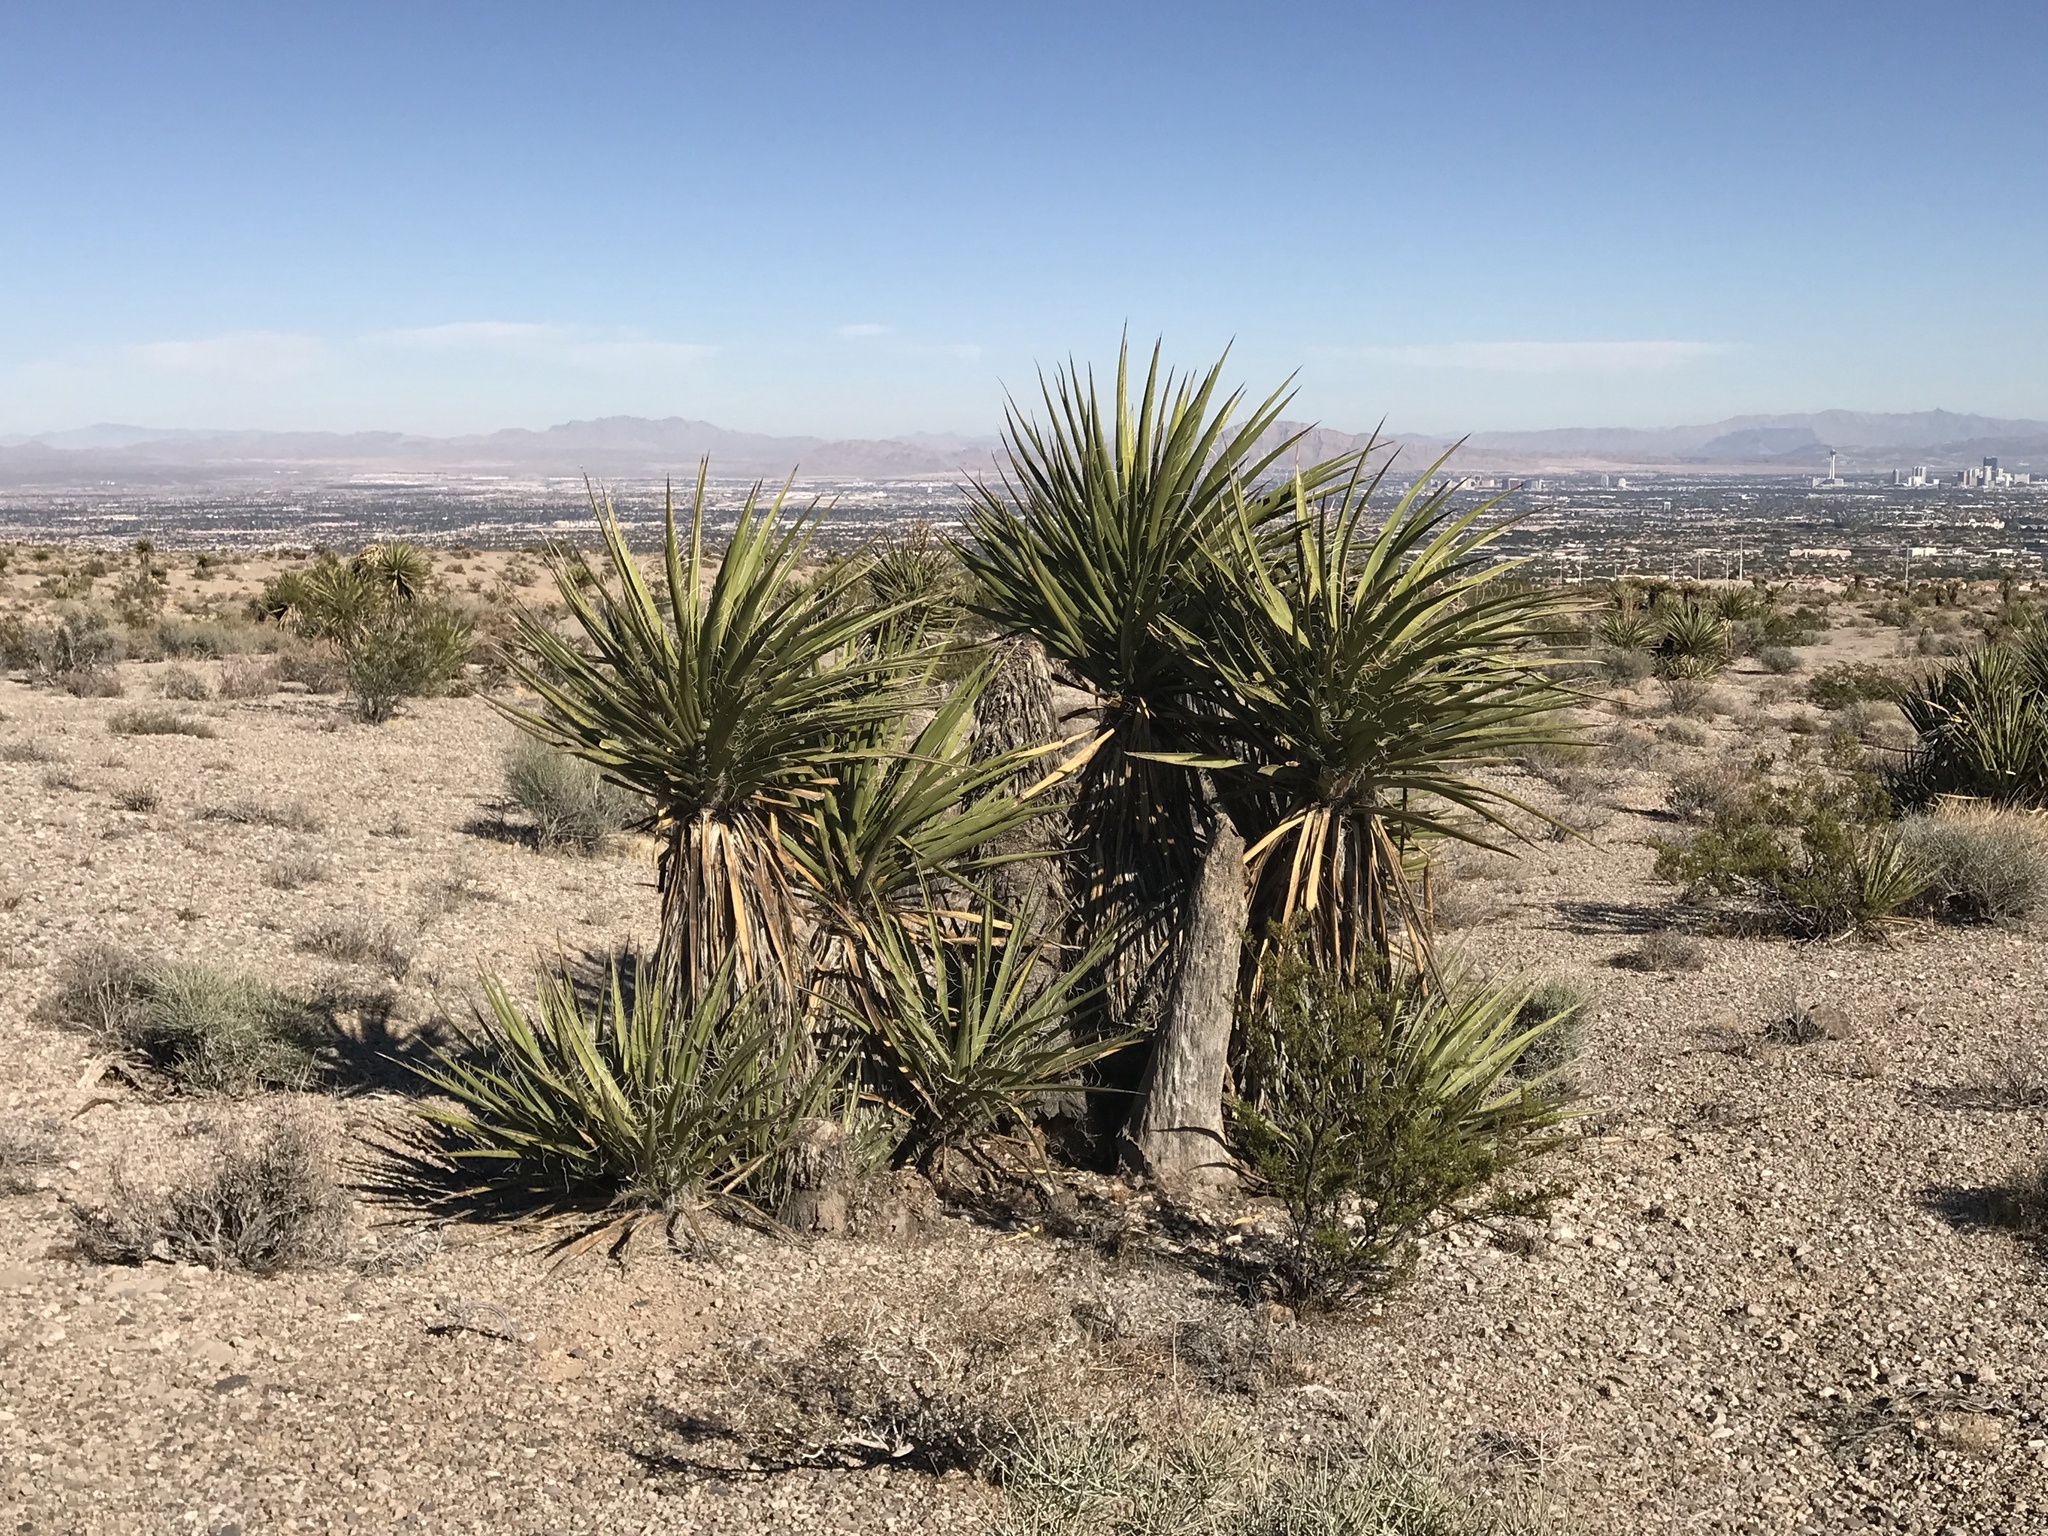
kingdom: Plantae
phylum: Tracheophyta
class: Liliopsida
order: Asparagales
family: Asparagaceae
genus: Yucca
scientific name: Yucca schidigera
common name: Mojave yucca
